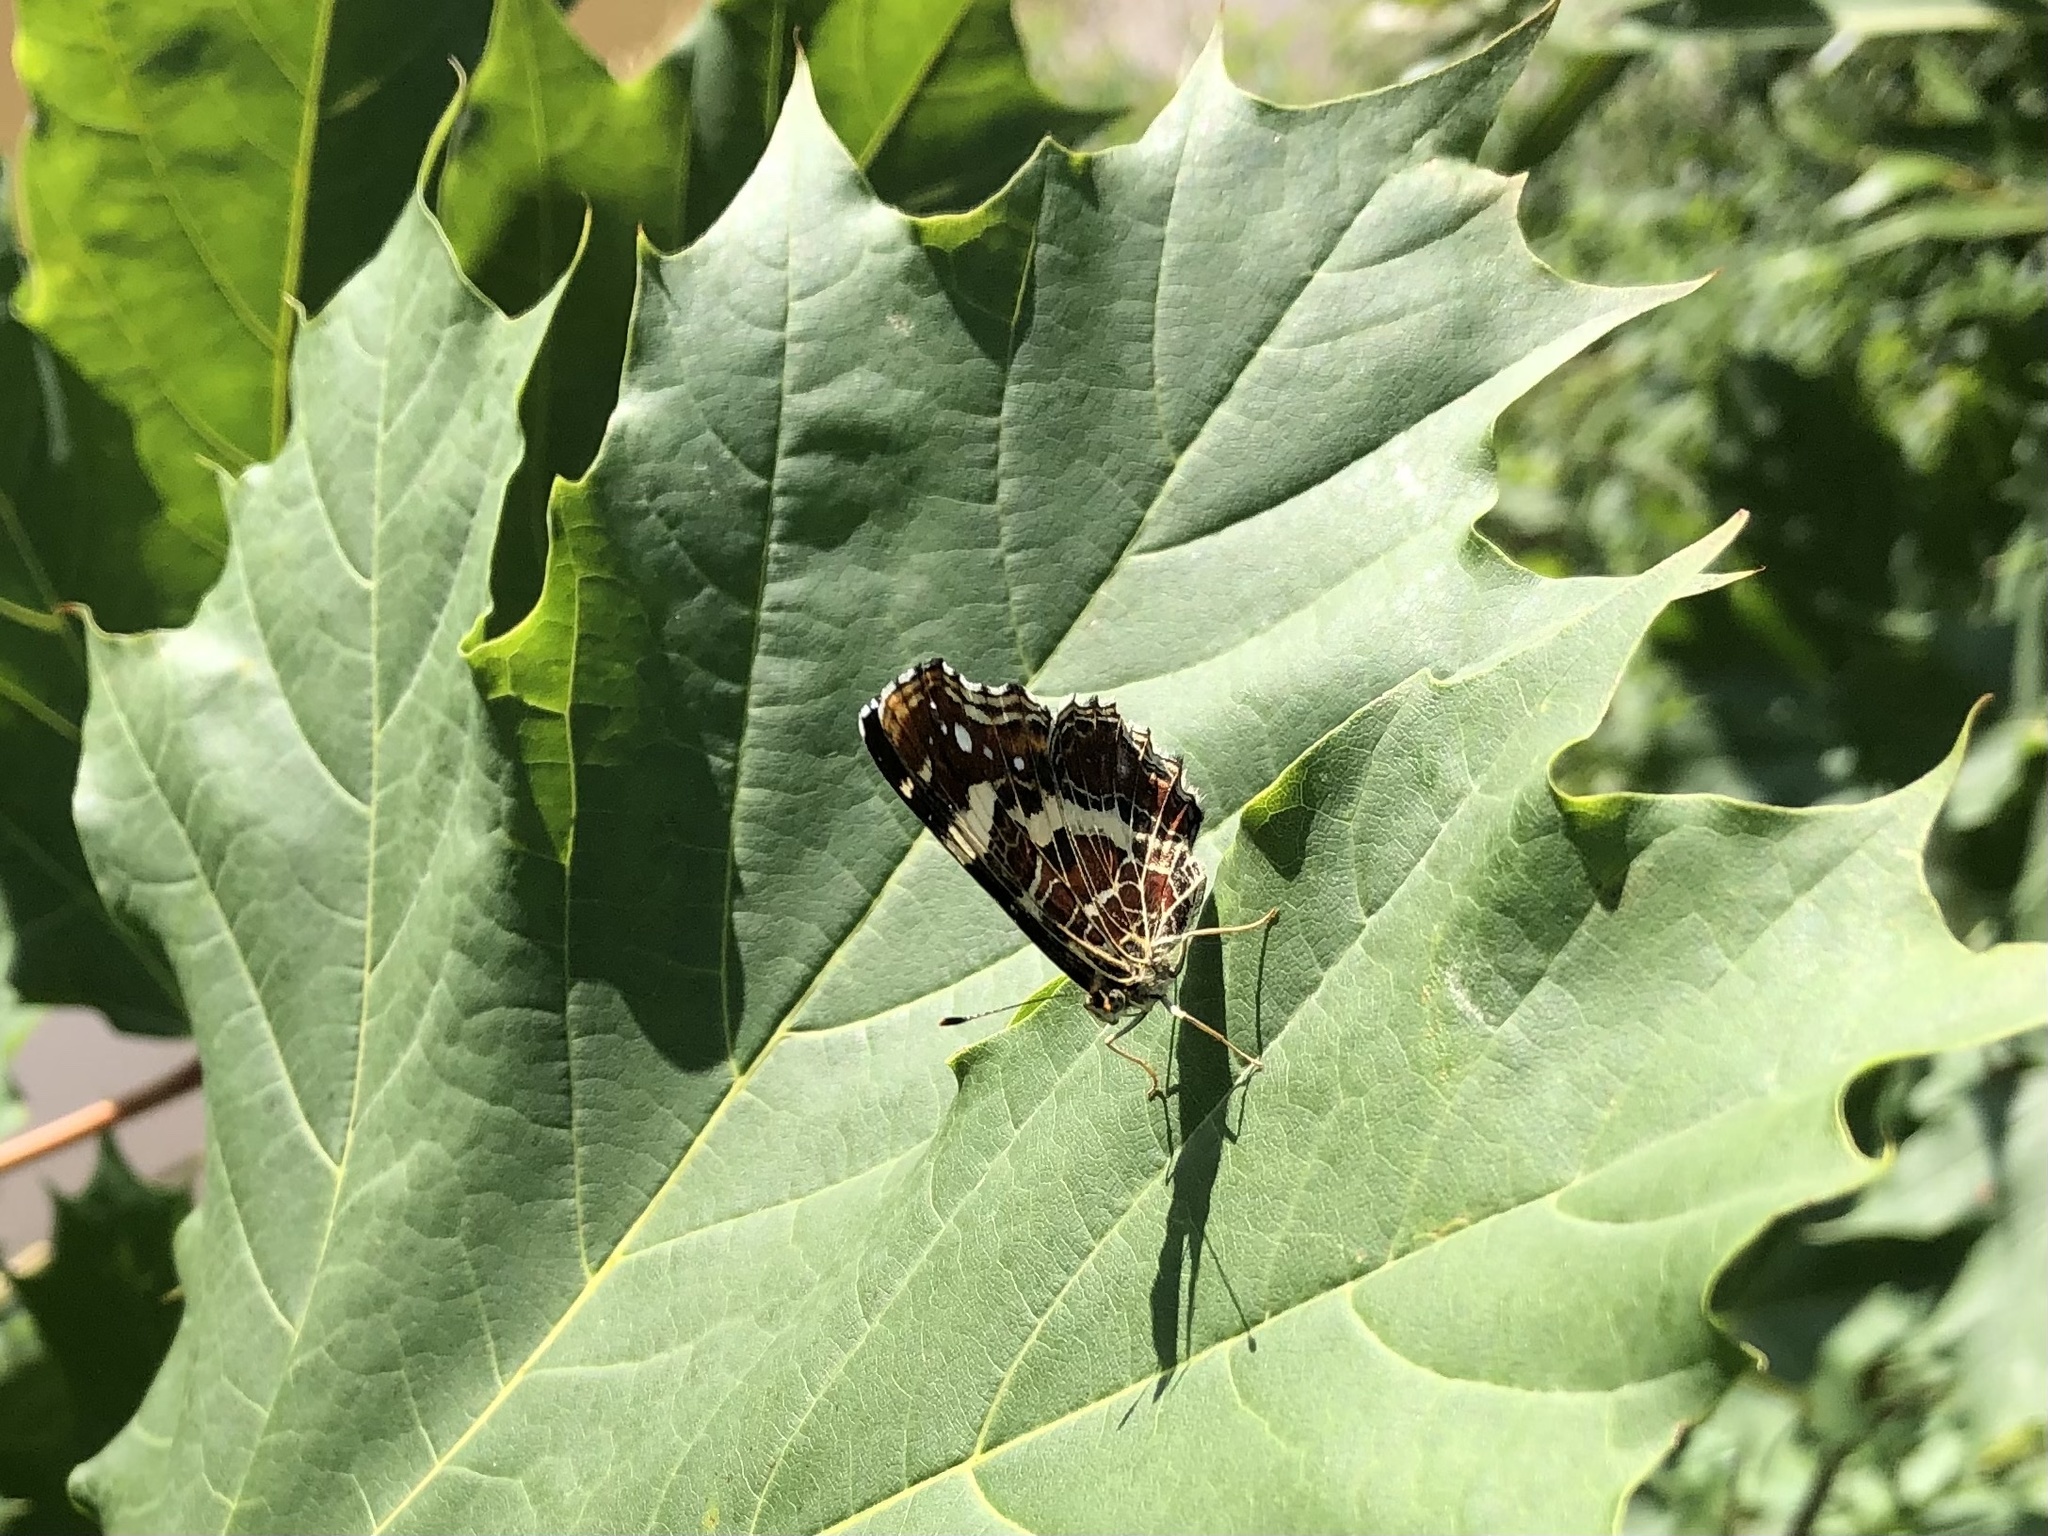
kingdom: Animalia
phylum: Arthropoda
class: Insecta
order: Lepidoptera
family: Nymphalidae
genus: Araschnia
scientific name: Araschnia levana
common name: Map butterfly
